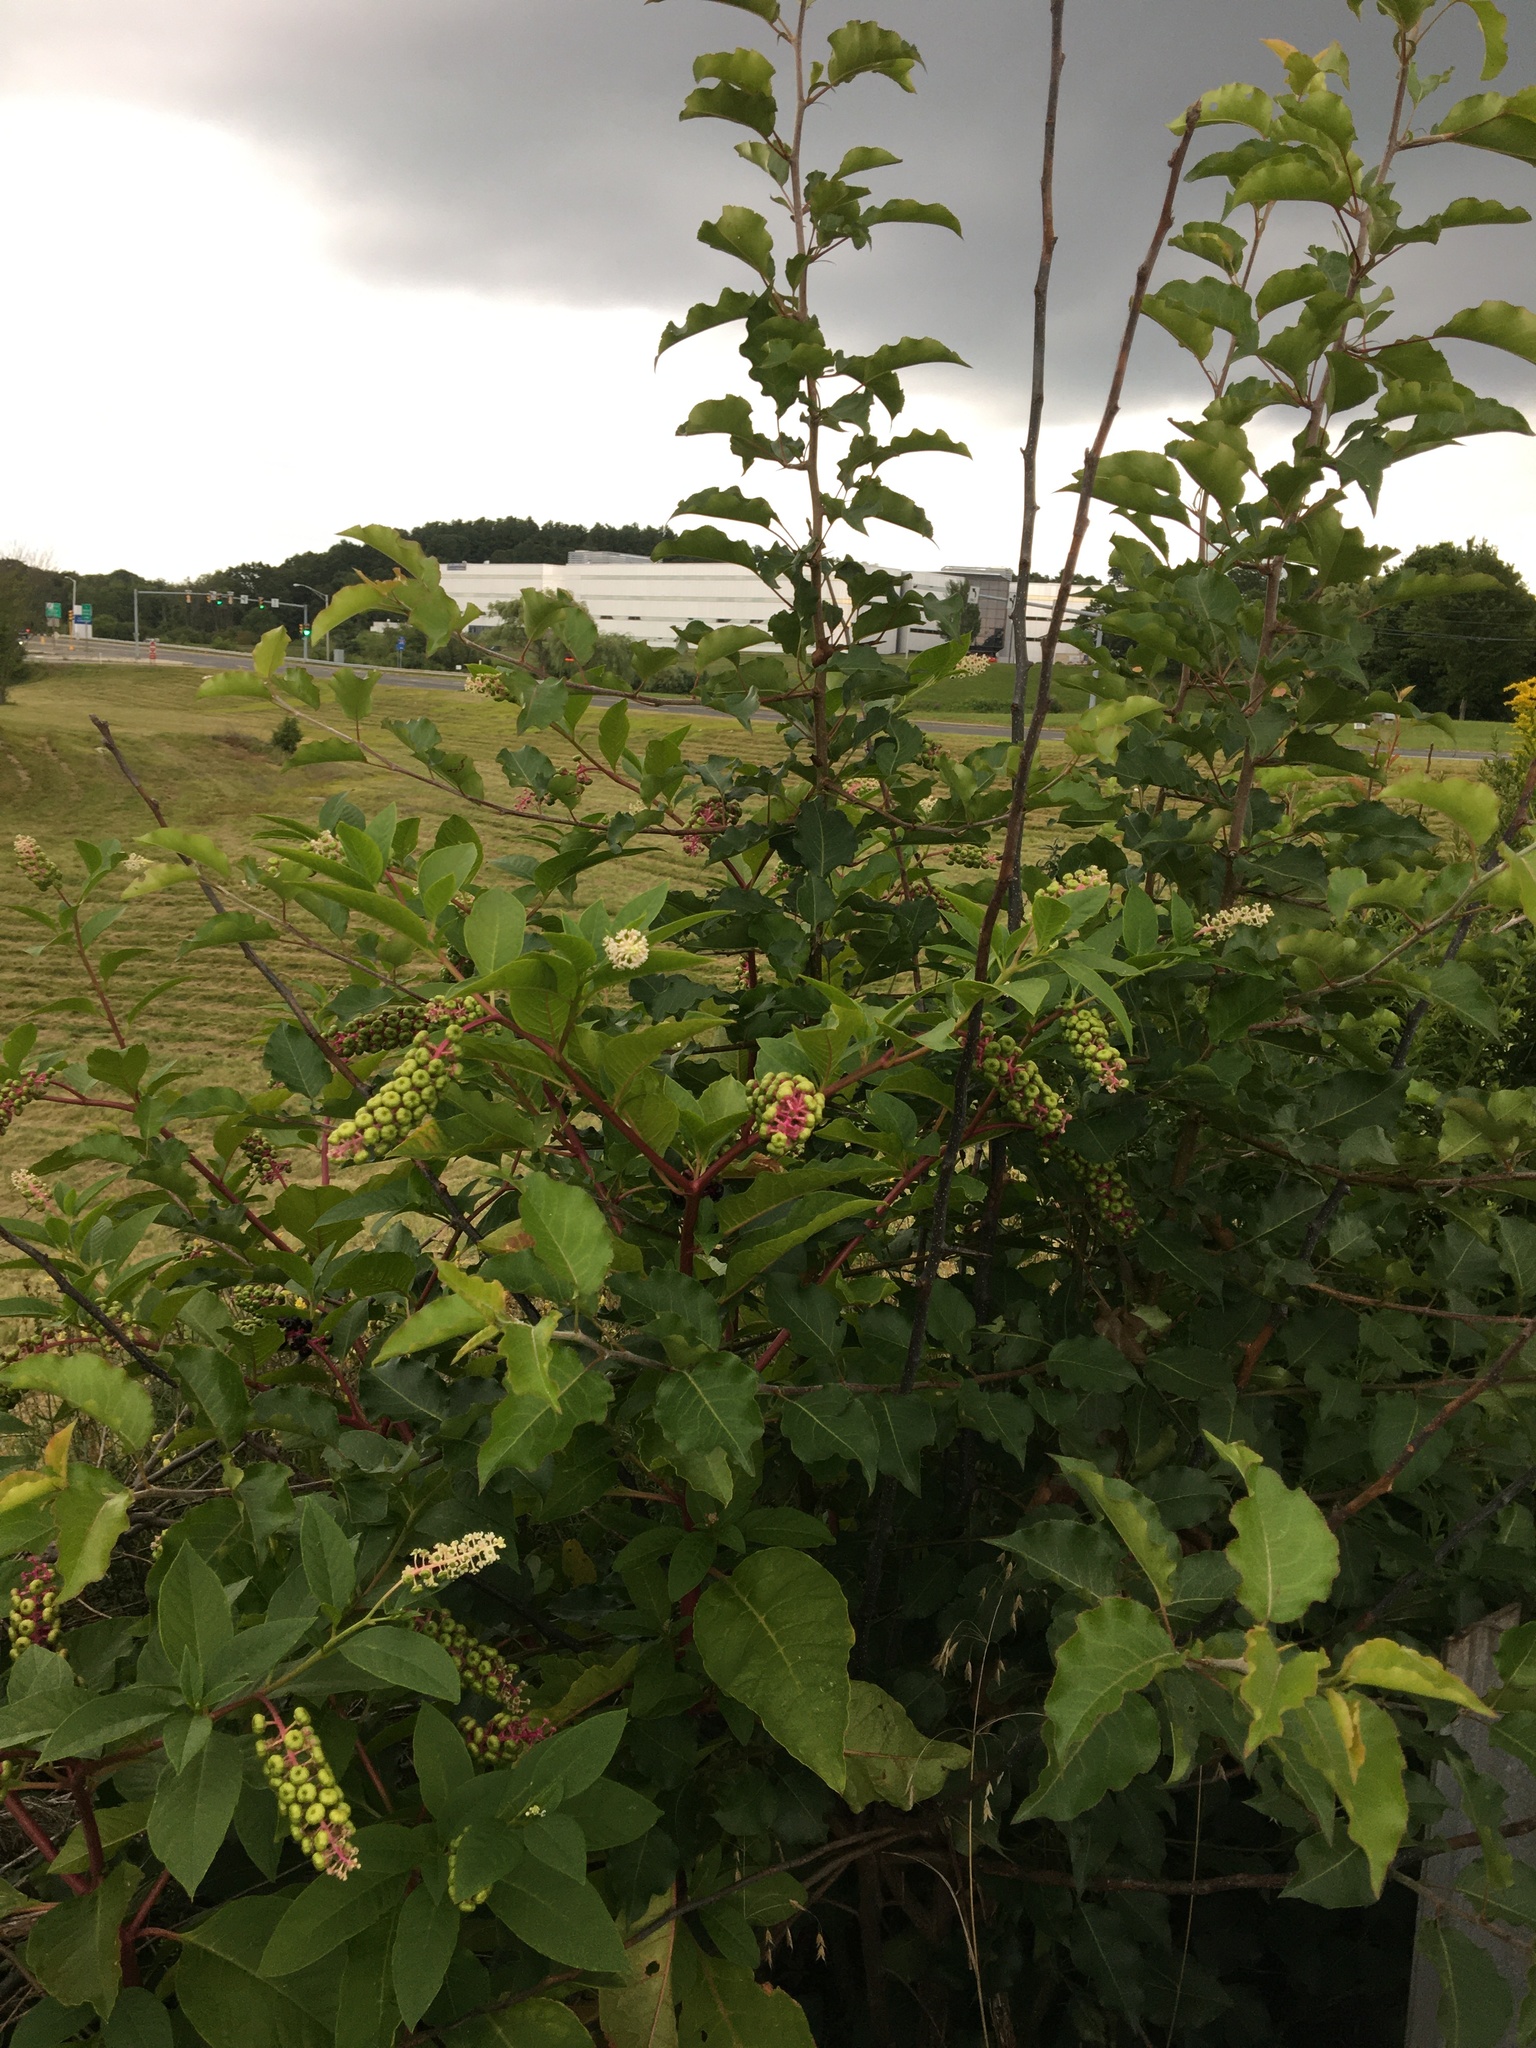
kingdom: Plantae
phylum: Tracheophyta
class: Magnoliopsida
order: Caryophyllales
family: Phytolaccaceae
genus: Phytolacca
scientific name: Phytolacca americana
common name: American pokeweed
